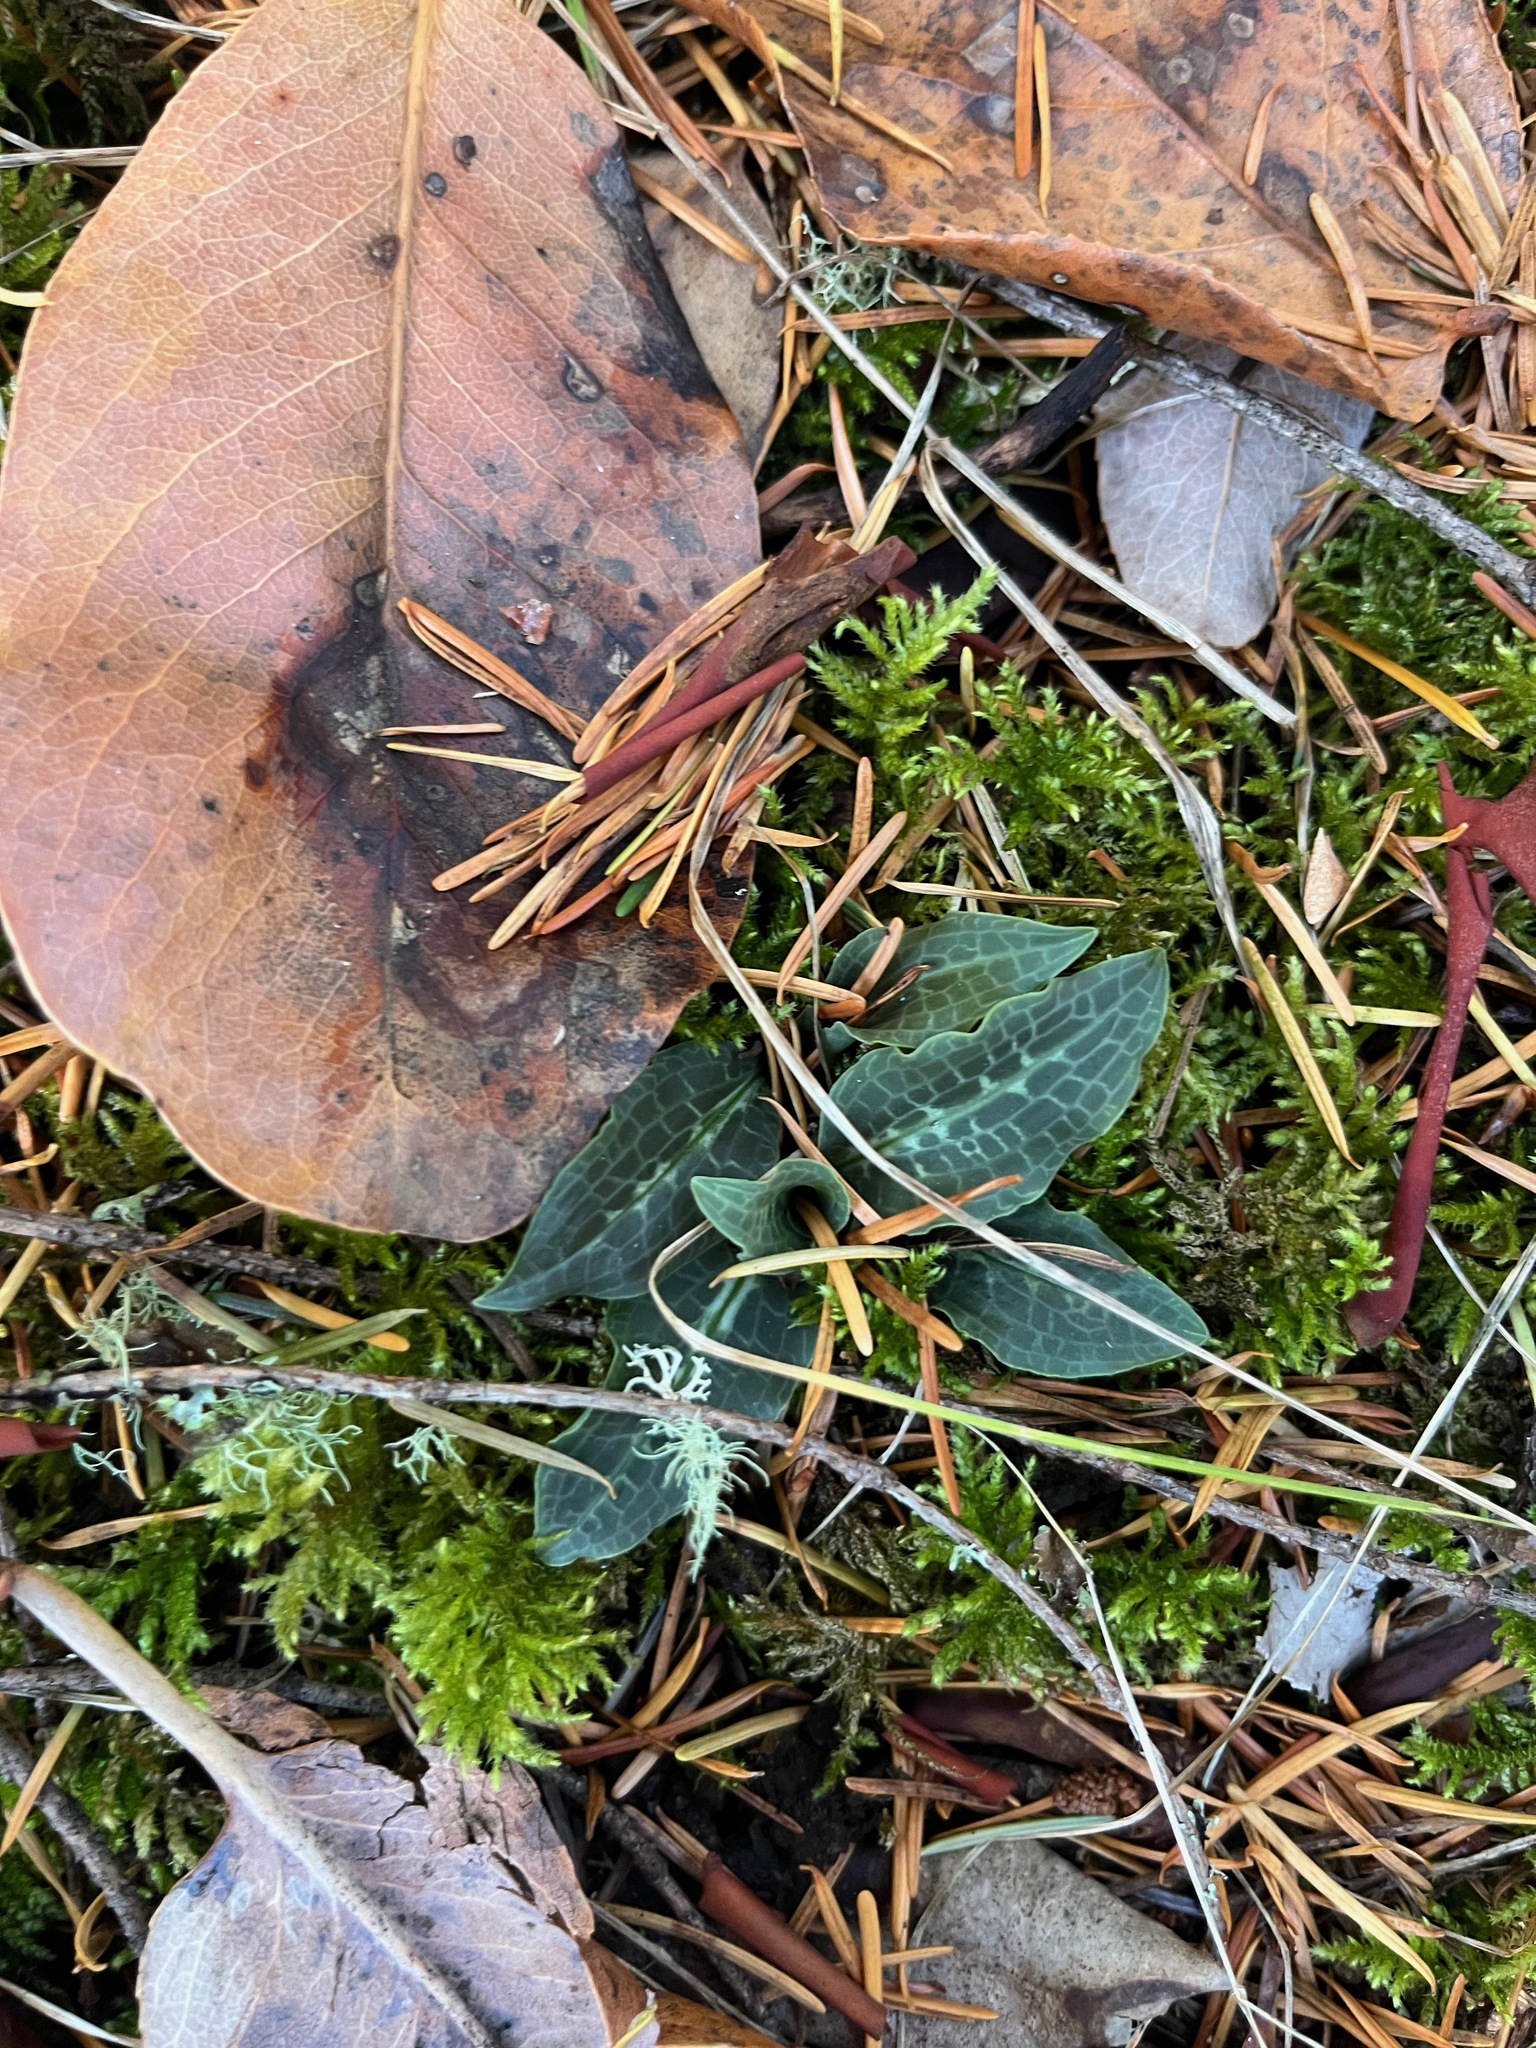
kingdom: Plantae
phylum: Tracheophyta
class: Liliopsida
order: Asparagales
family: Orchidaceae
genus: Goodyera
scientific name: Goodyera oblongifolia
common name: Giant rattlesnake-plantain
